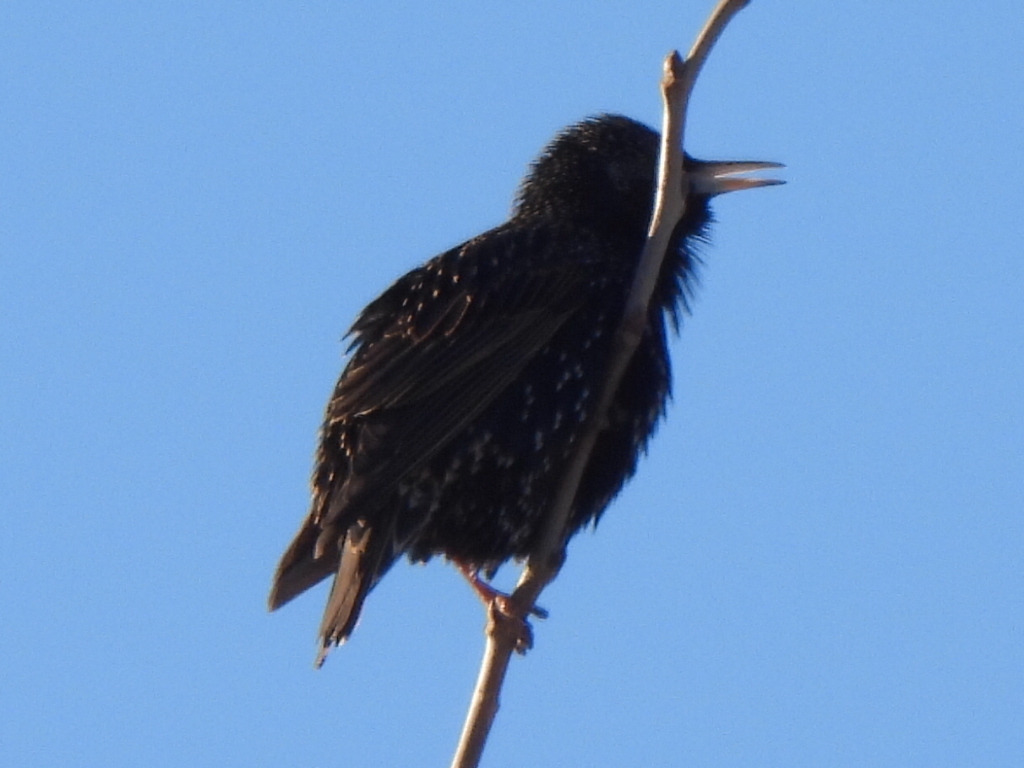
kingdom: Animalia
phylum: Chordata
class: Aves
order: Passeriformes
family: Sturnidae
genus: Sturnus
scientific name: Sturnus vulgaris
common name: Common starling
